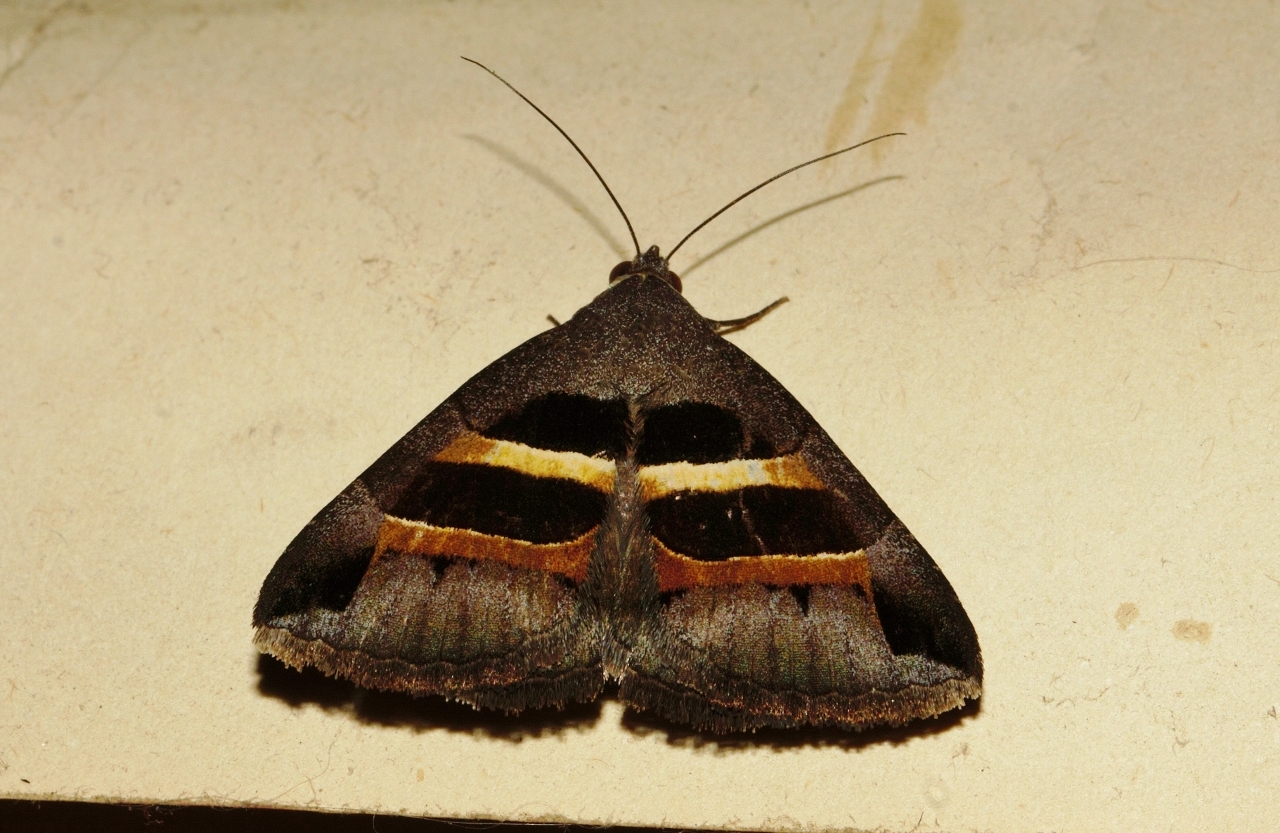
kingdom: Animalia
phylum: Arthropoda
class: Insecta
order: Lepidoptera
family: Erebidae
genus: Grammodes
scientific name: Grammodes congenita
